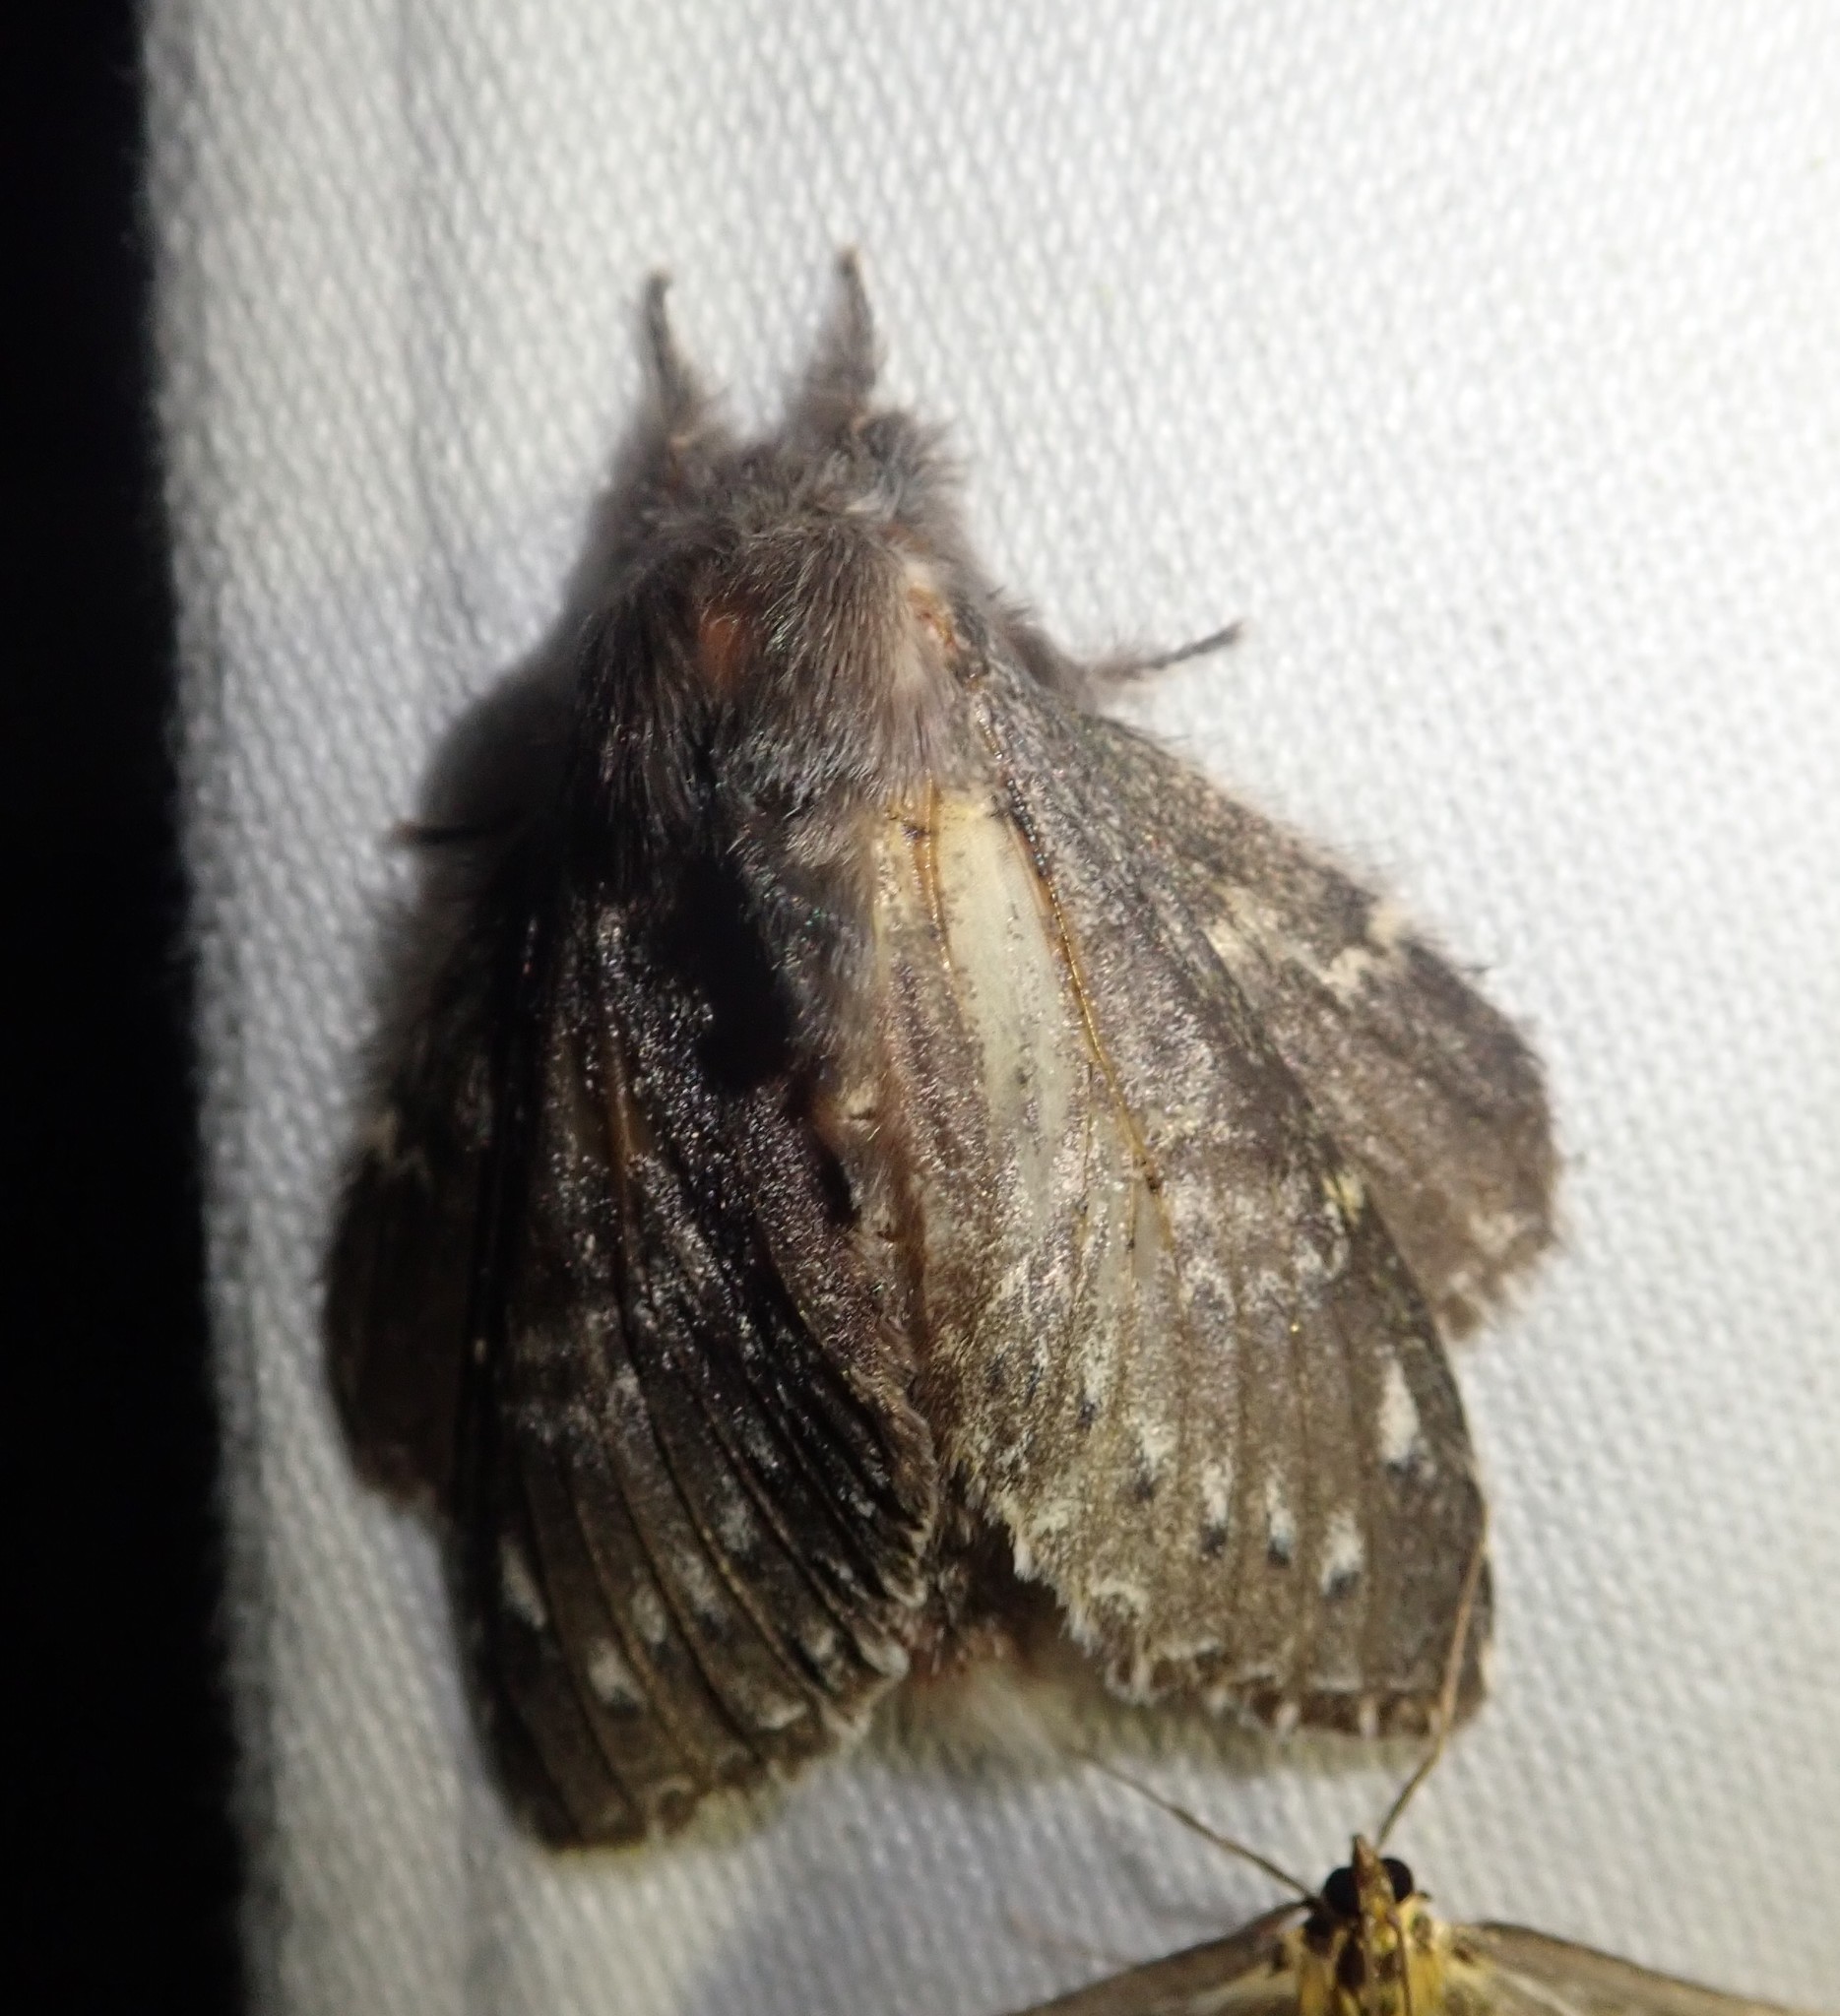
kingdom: Animalia
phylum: Arthropoda
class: Insecta
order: Lepidoptera
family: Notodontidae
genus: Stauropus
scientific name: Stauropus fagi
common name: Lobster moth
